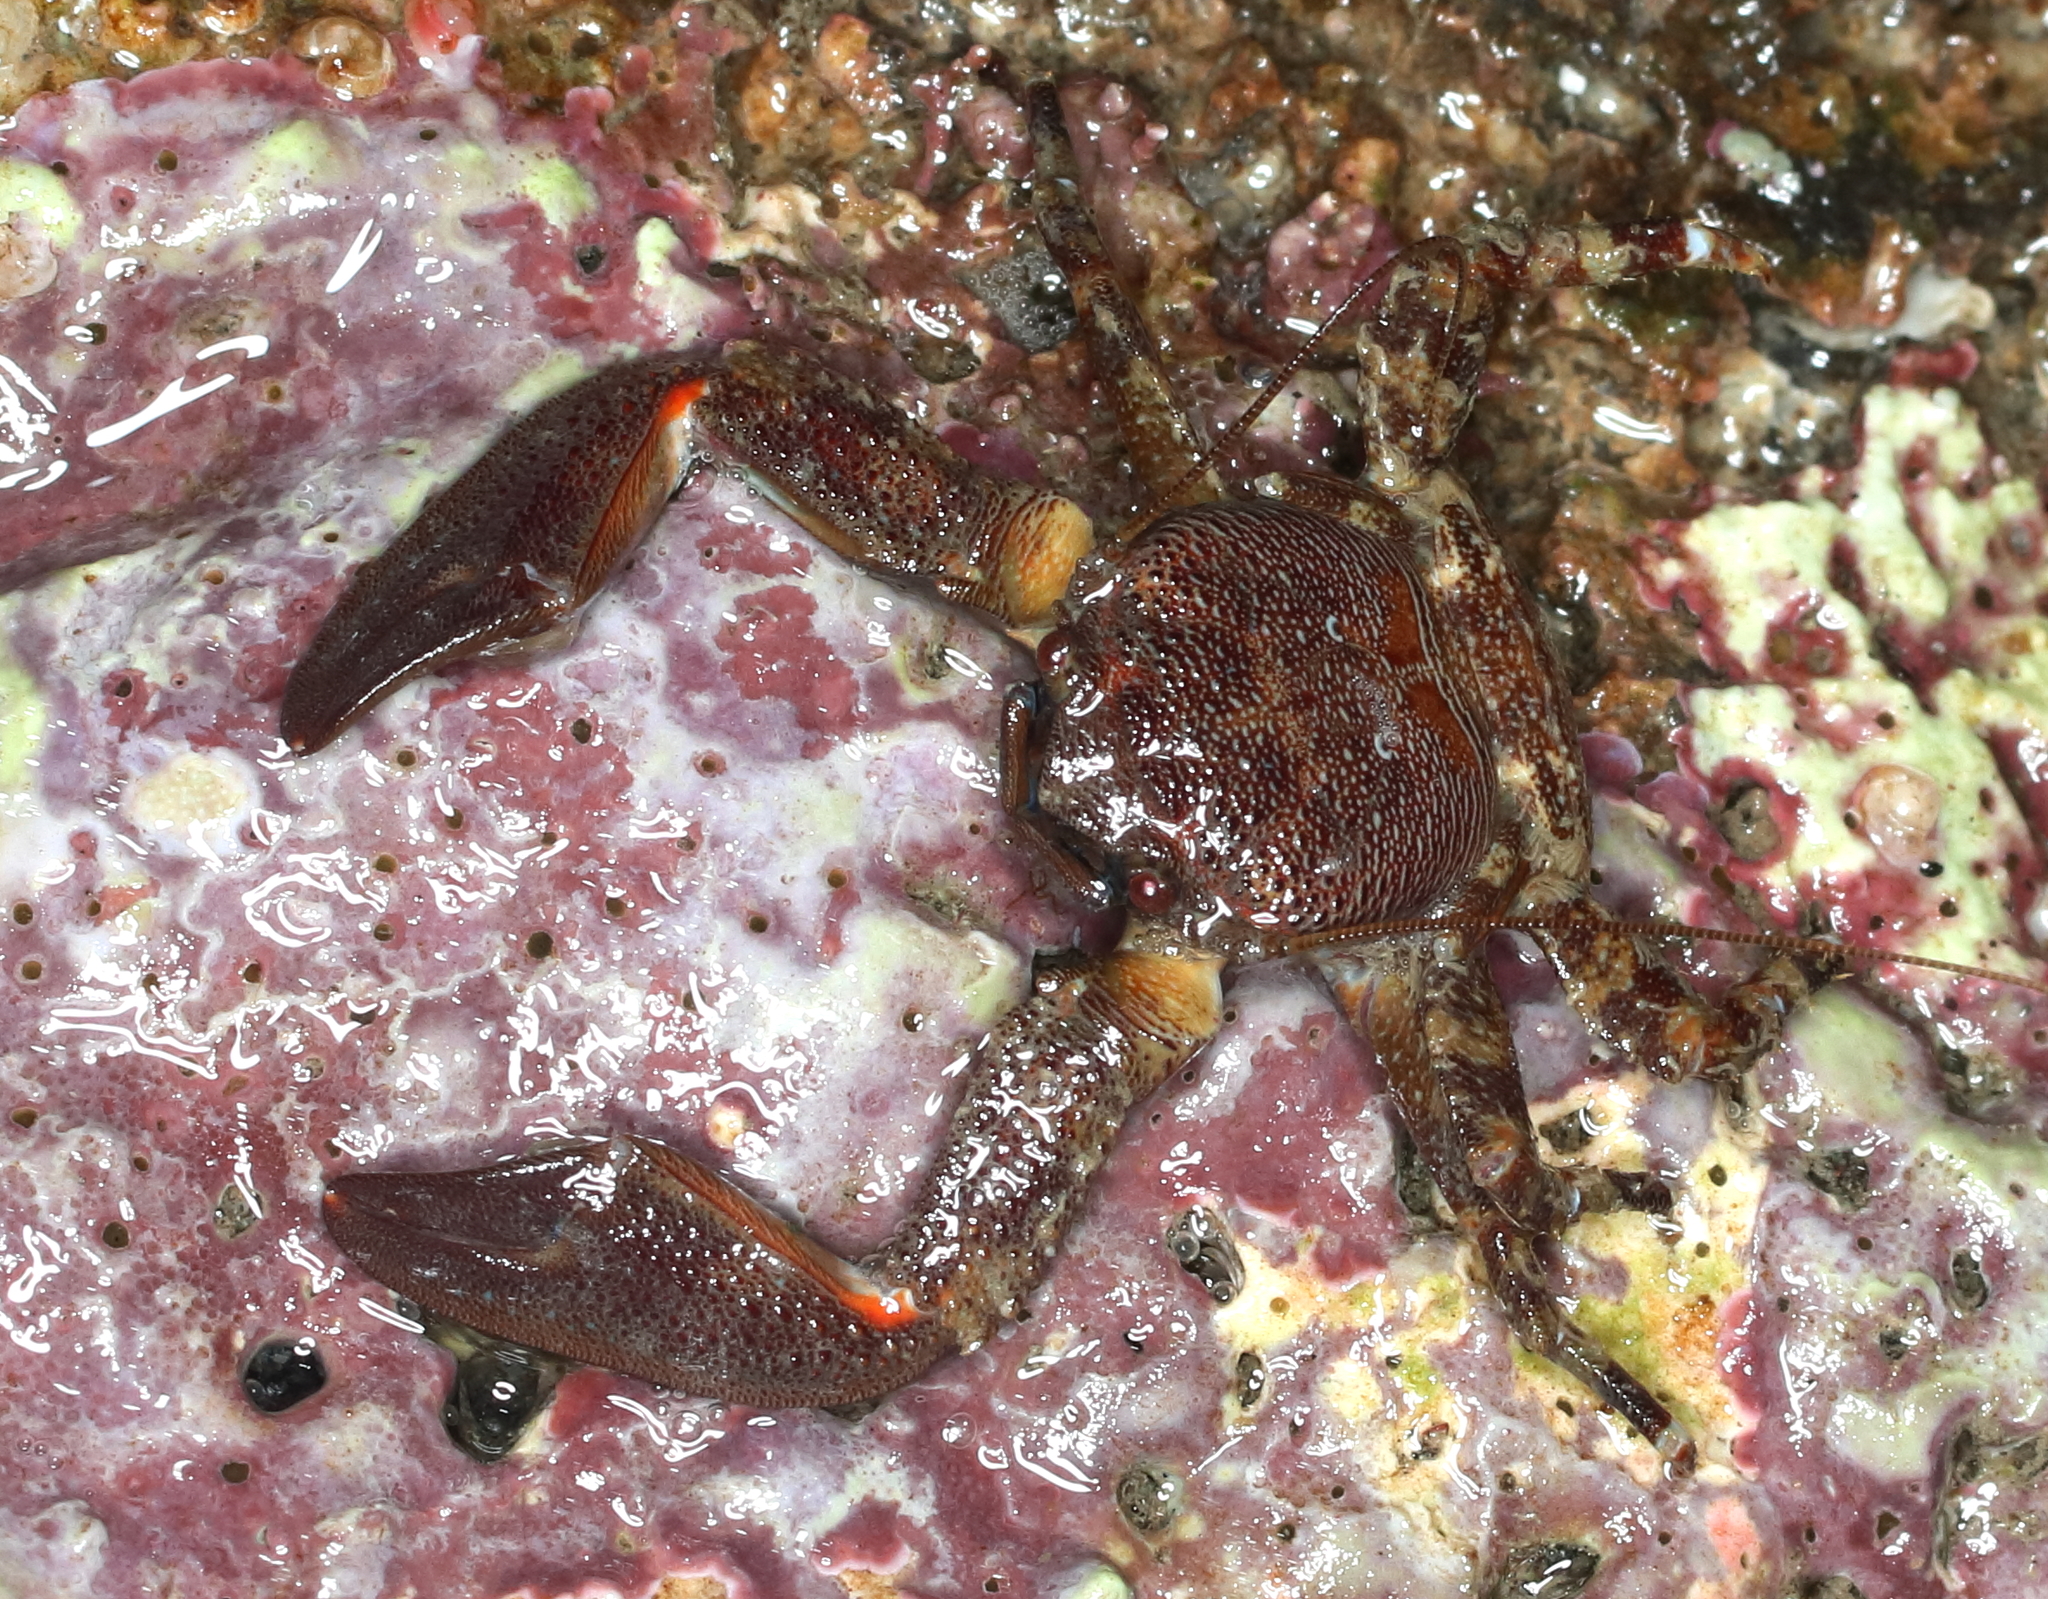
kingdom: Animalia
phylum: Arthropoda
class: Malacostraca
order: Decapoda
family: Porcellanidae
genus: Petrolisthes
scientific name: Petrolisthes eriomerus
